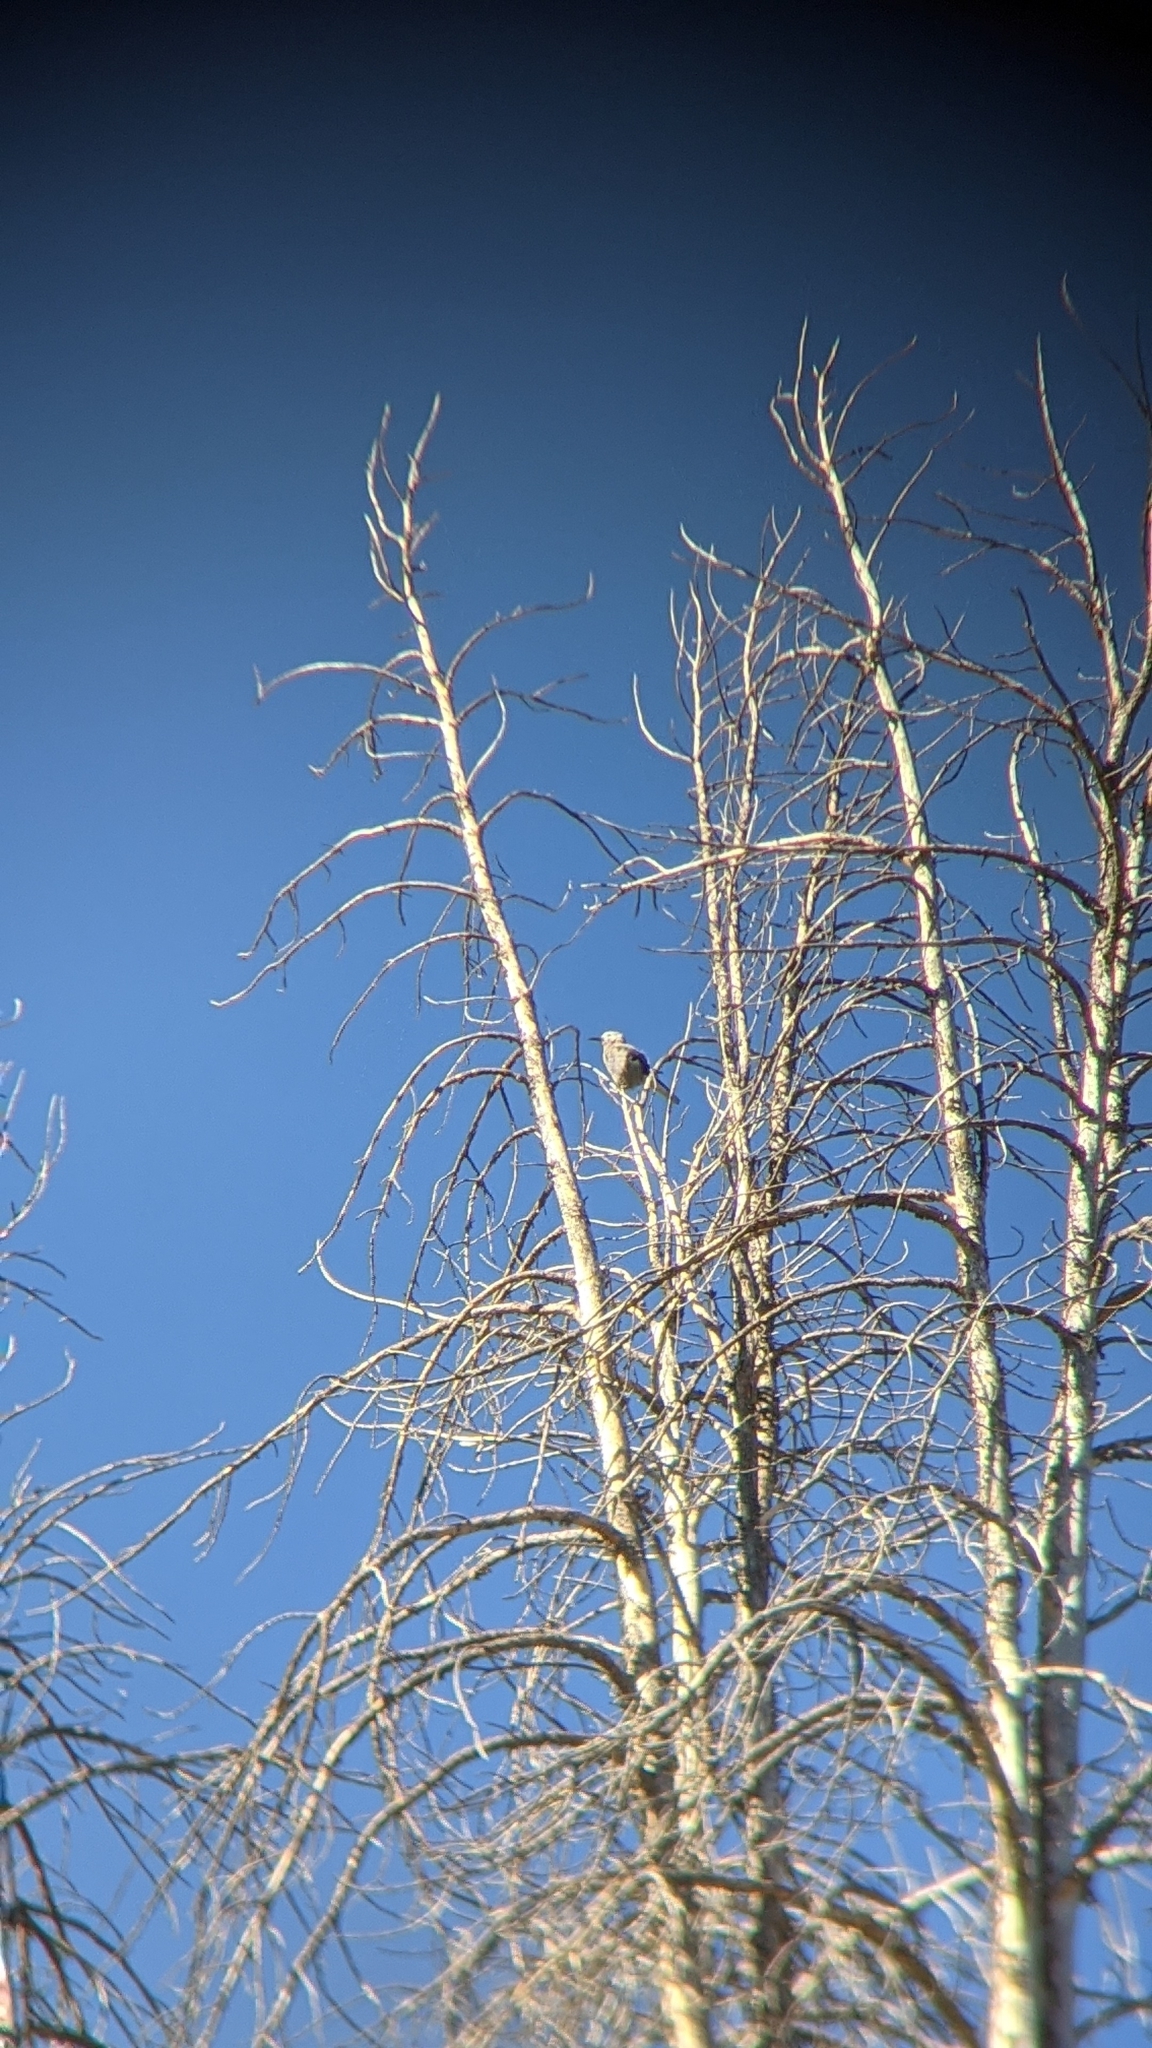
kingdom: Animalia
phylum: Chordata
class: Aves
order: Passeriformes
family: Corvidae
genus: Nucifraga
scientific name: Nucifraga columbiana
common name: Clark's nutcracker
